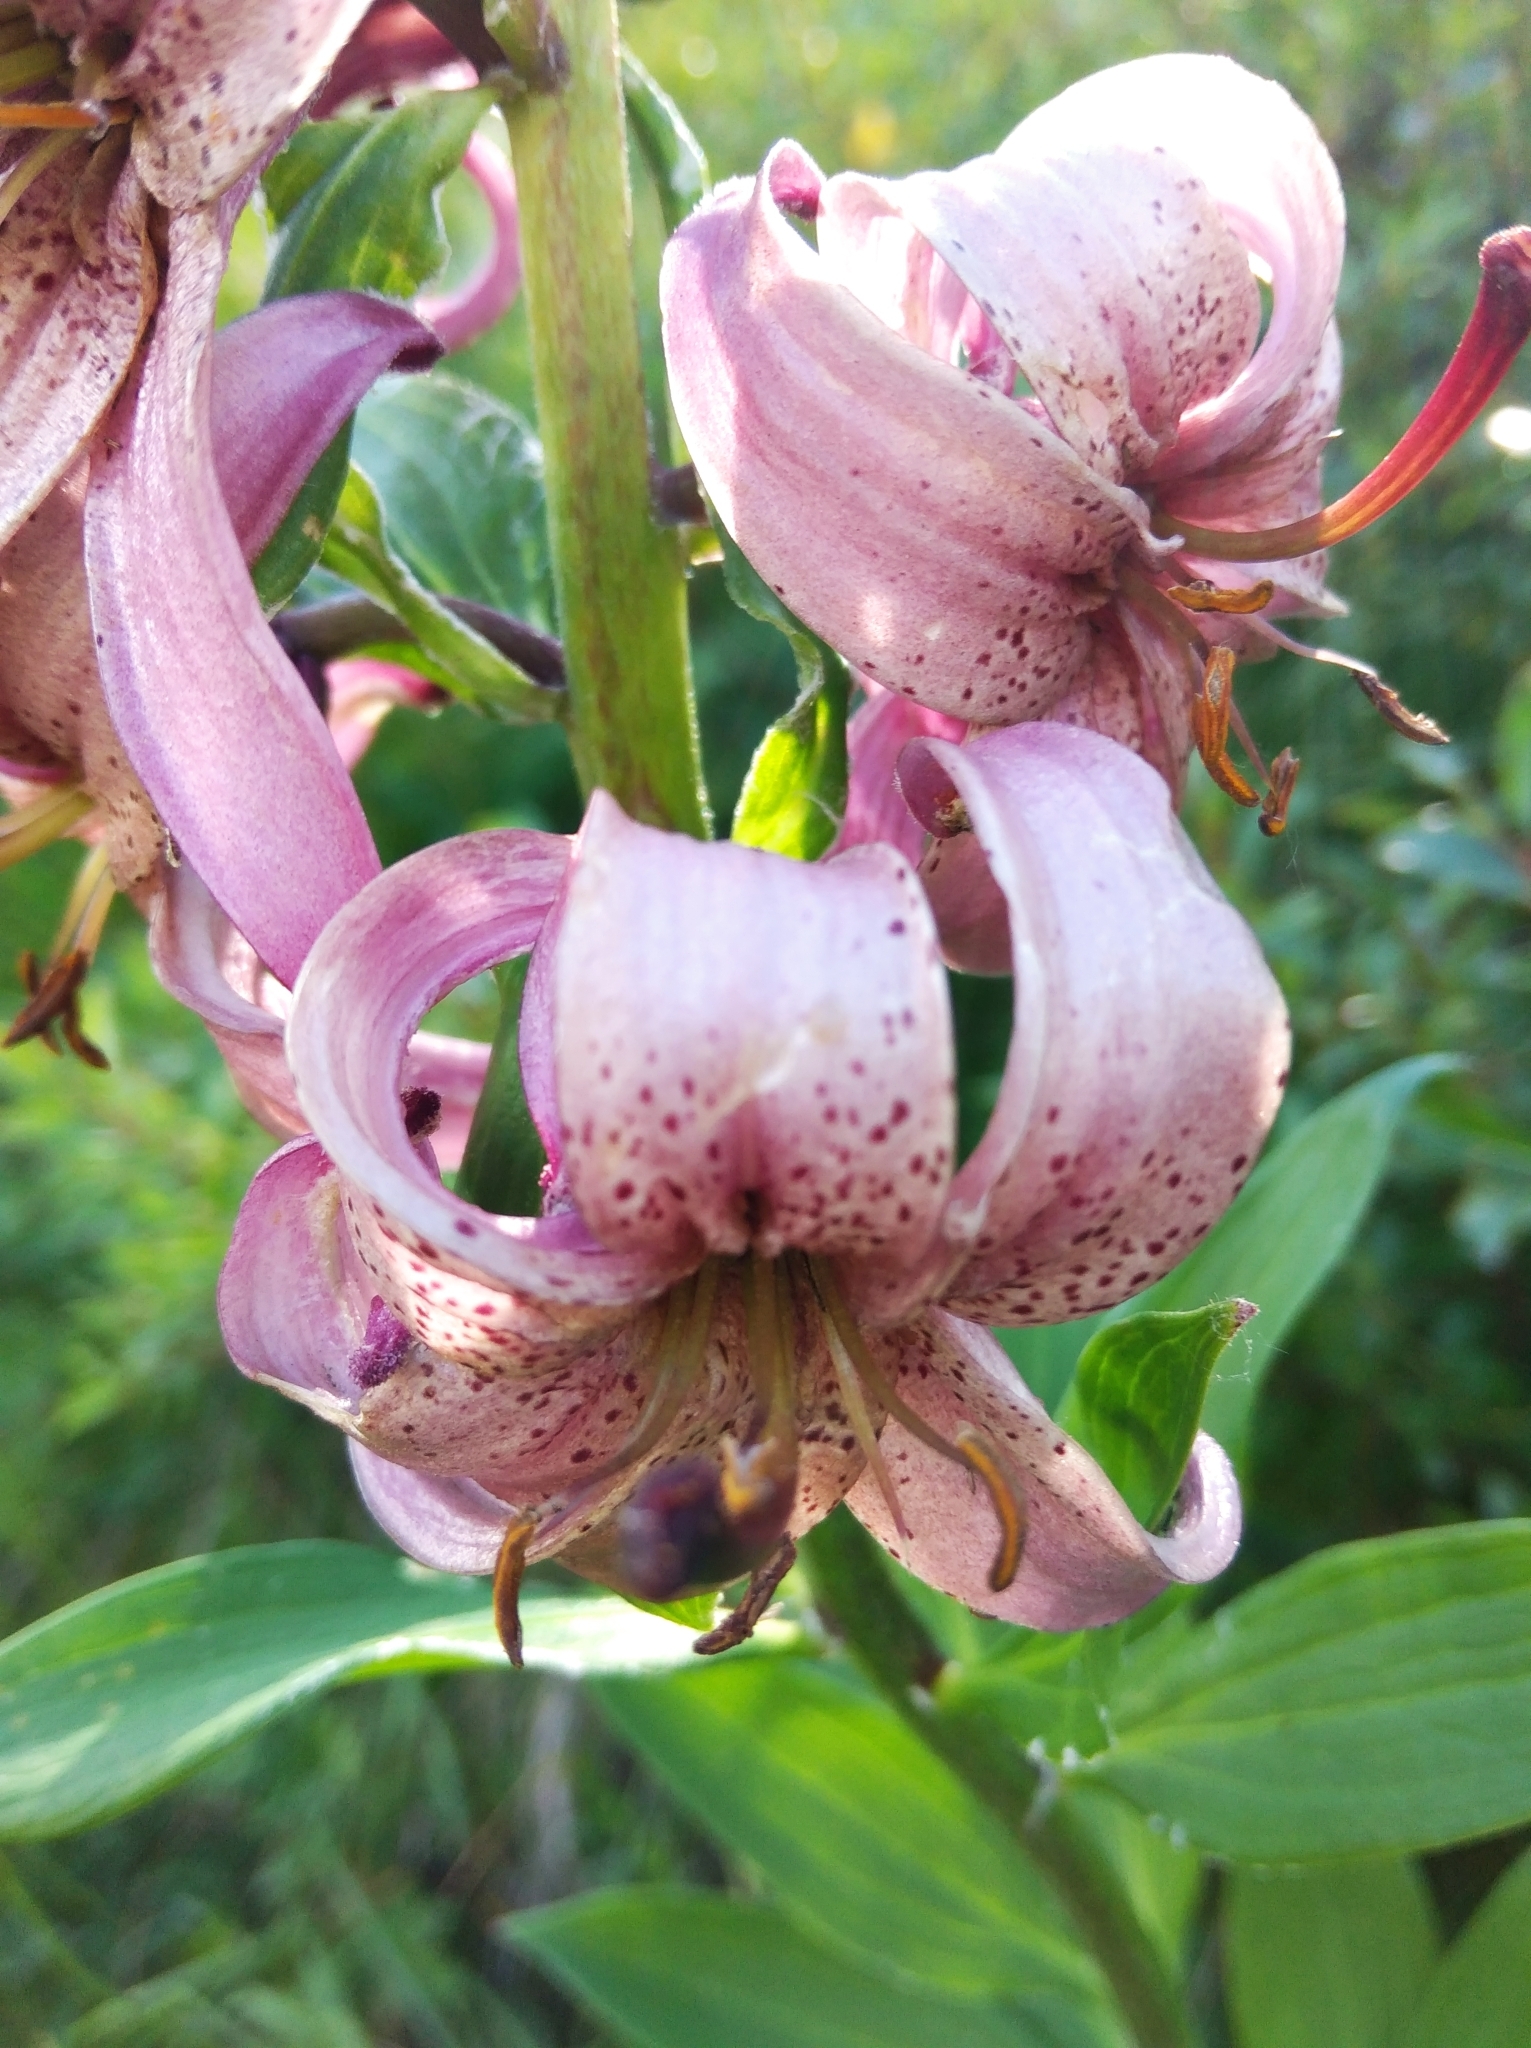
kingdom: Plantae
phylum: Tracheophyta
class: Liliopsida
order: Liliales
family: Liliaceae
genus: Lilium
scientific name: Lilium martagon
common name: Martagon lily
